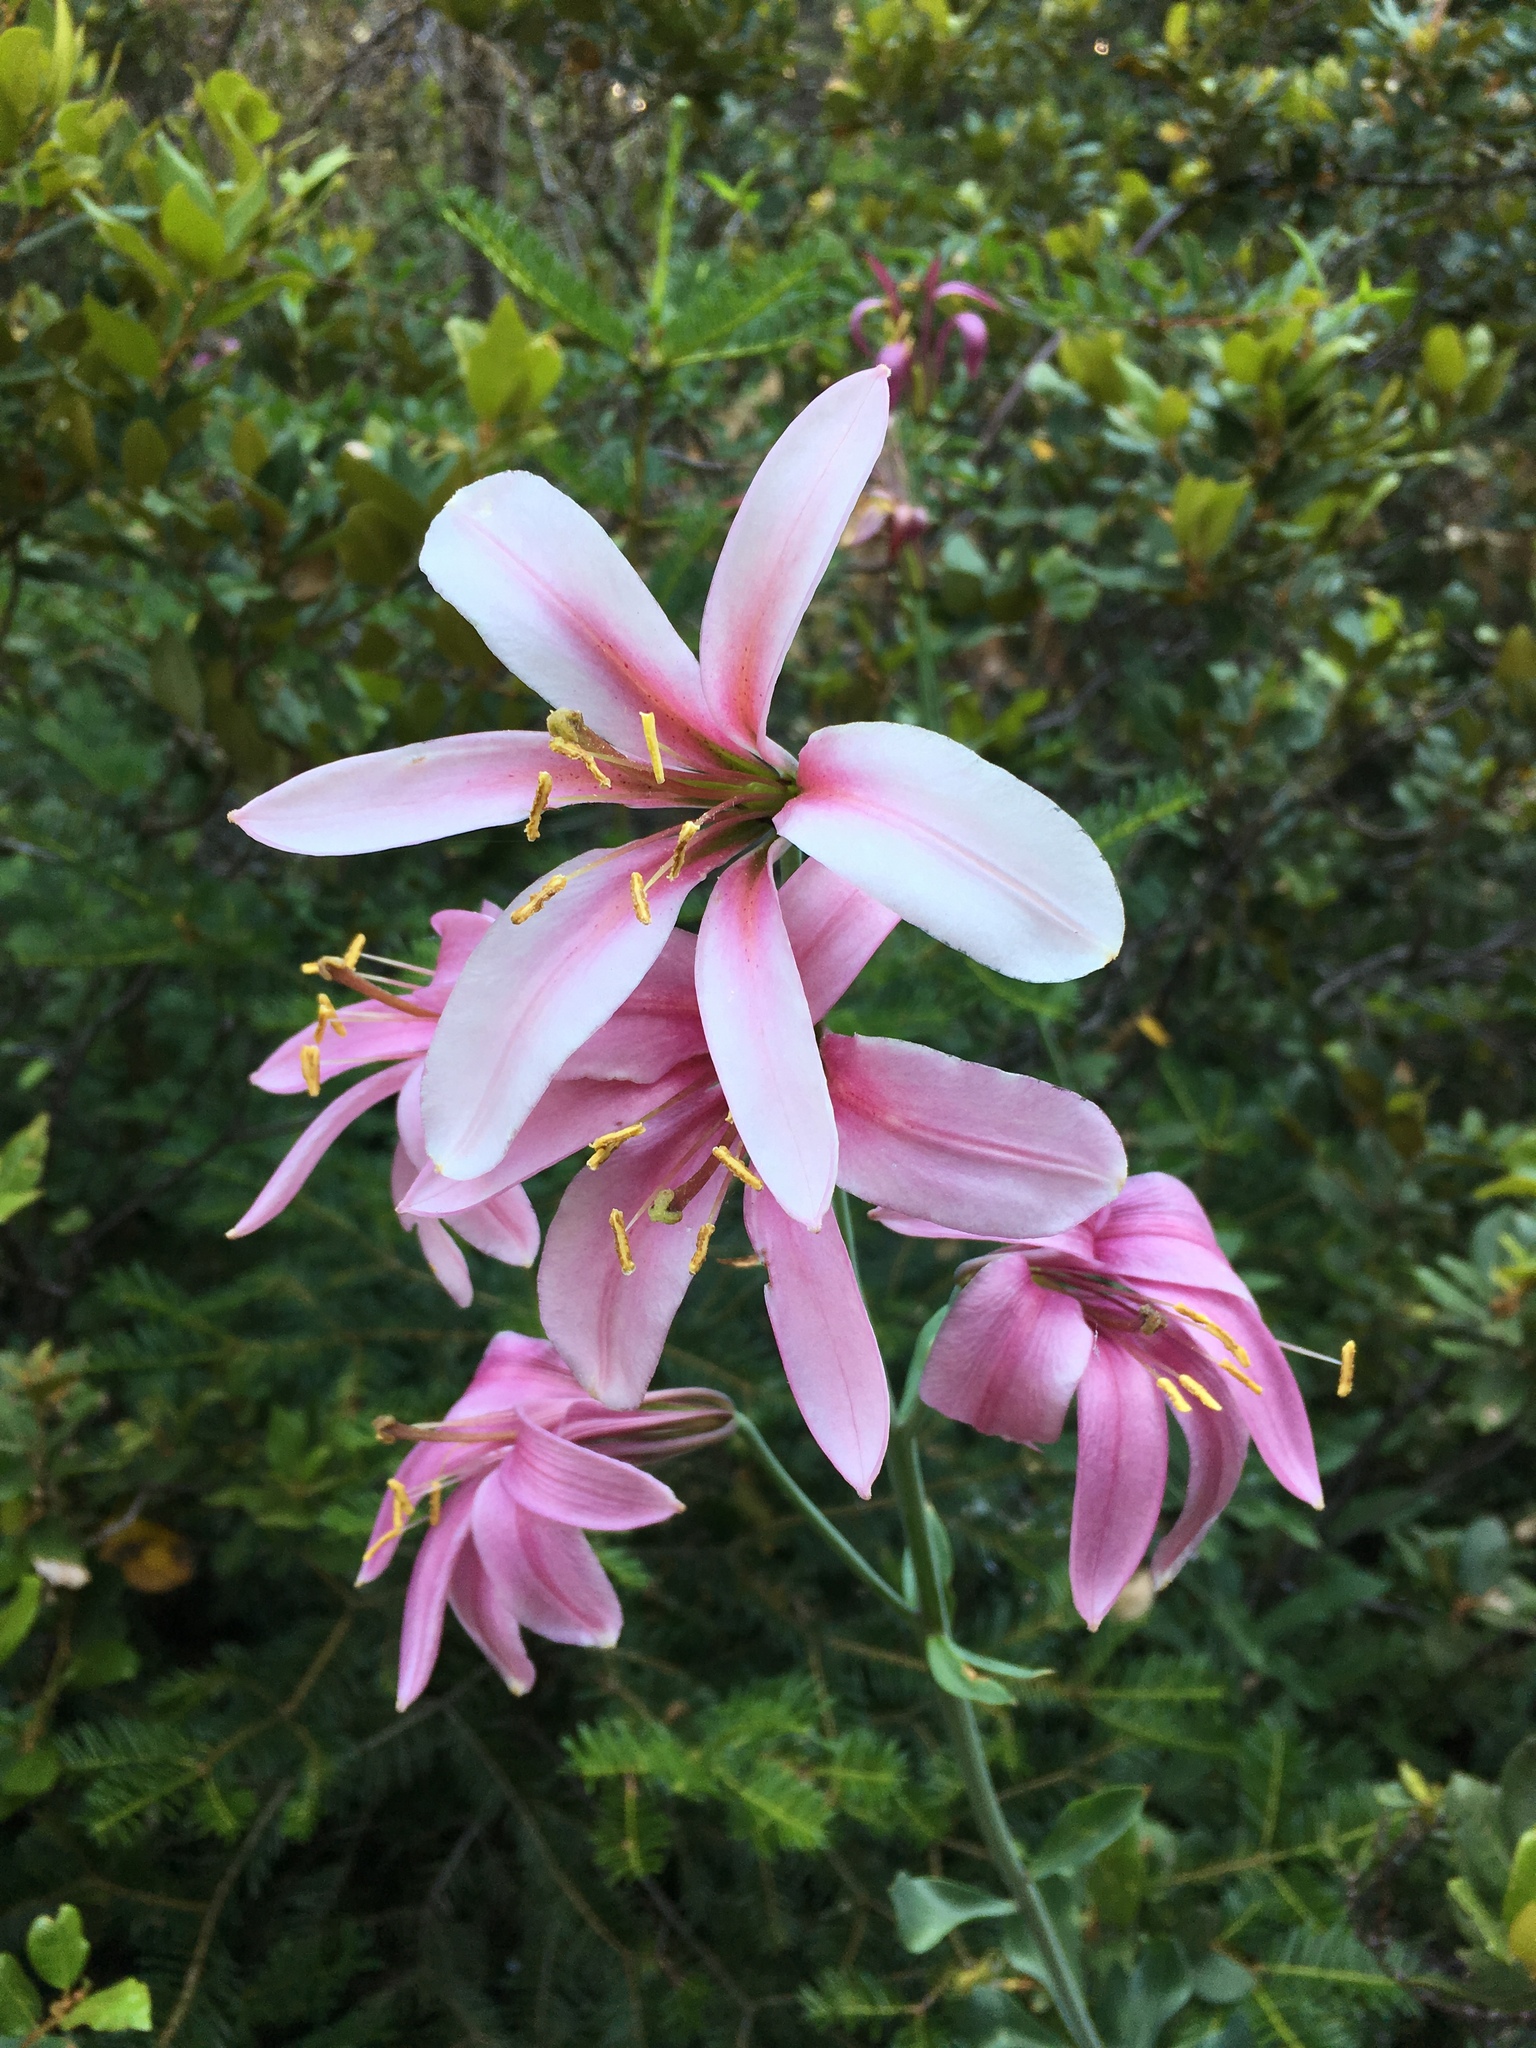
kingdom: Plantae
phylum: Tracheophyta
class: Liliopsida
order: Liliales
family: Liliaceae
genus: Lilium
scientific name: Lilium washingtonianum
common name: Washington lily
